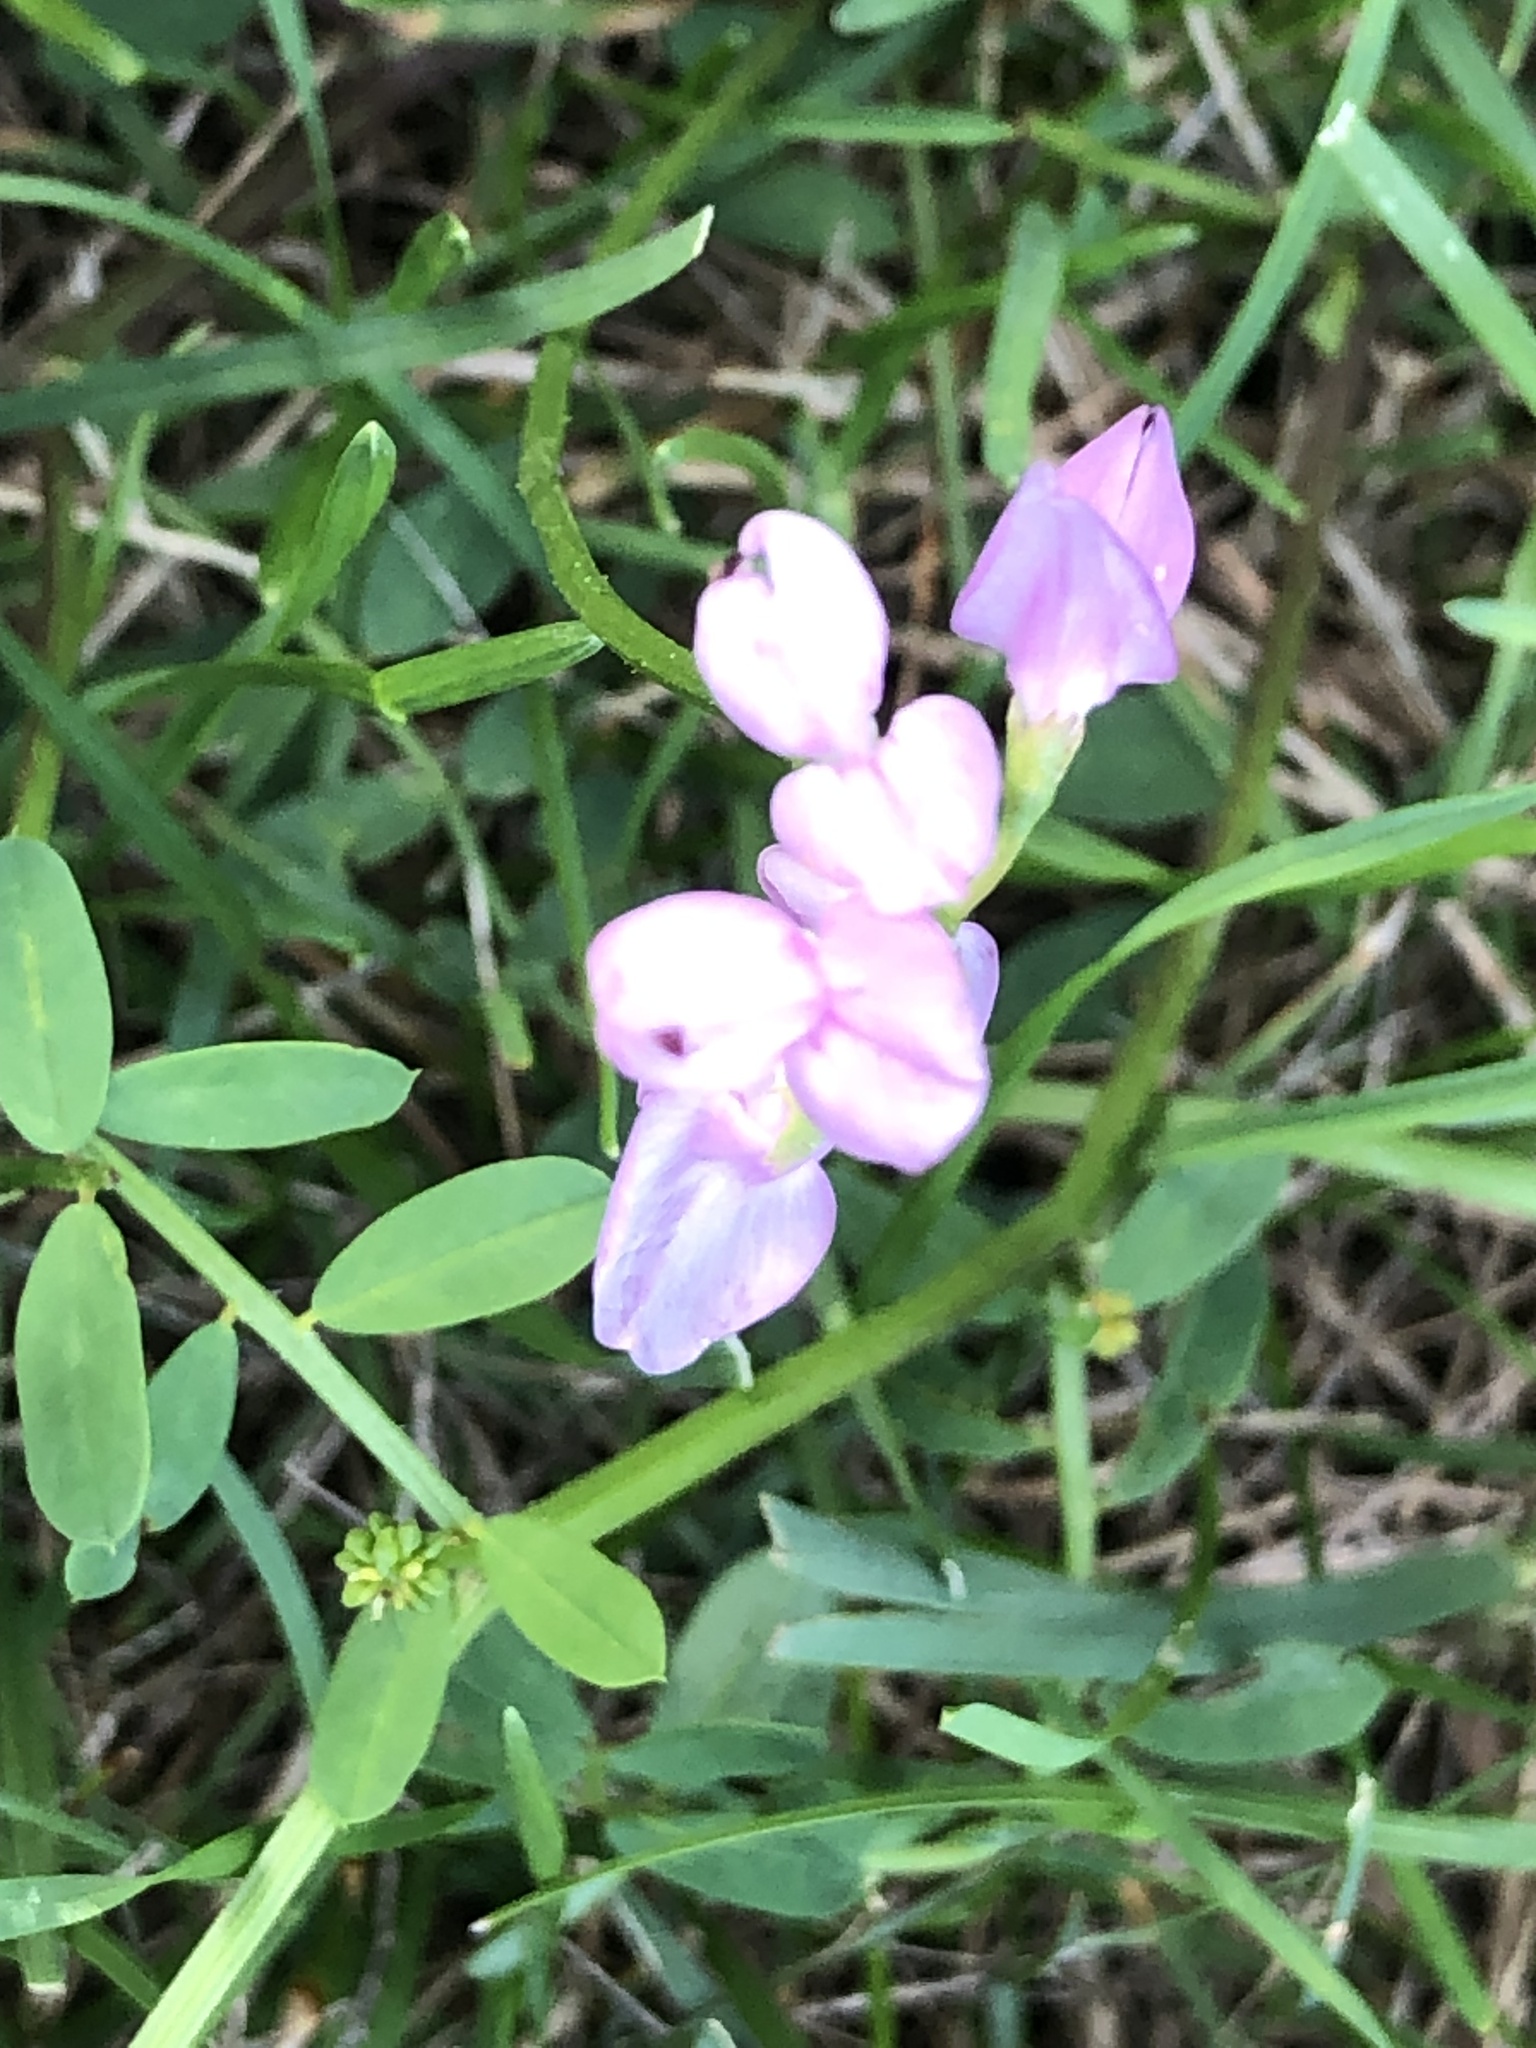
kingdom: Plantae
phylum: Tracheophyta
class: Magnoliopsida
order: Fabales
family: Fabaceae
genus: Coronilla
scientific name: Coronilla varia
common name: Crownvetch
